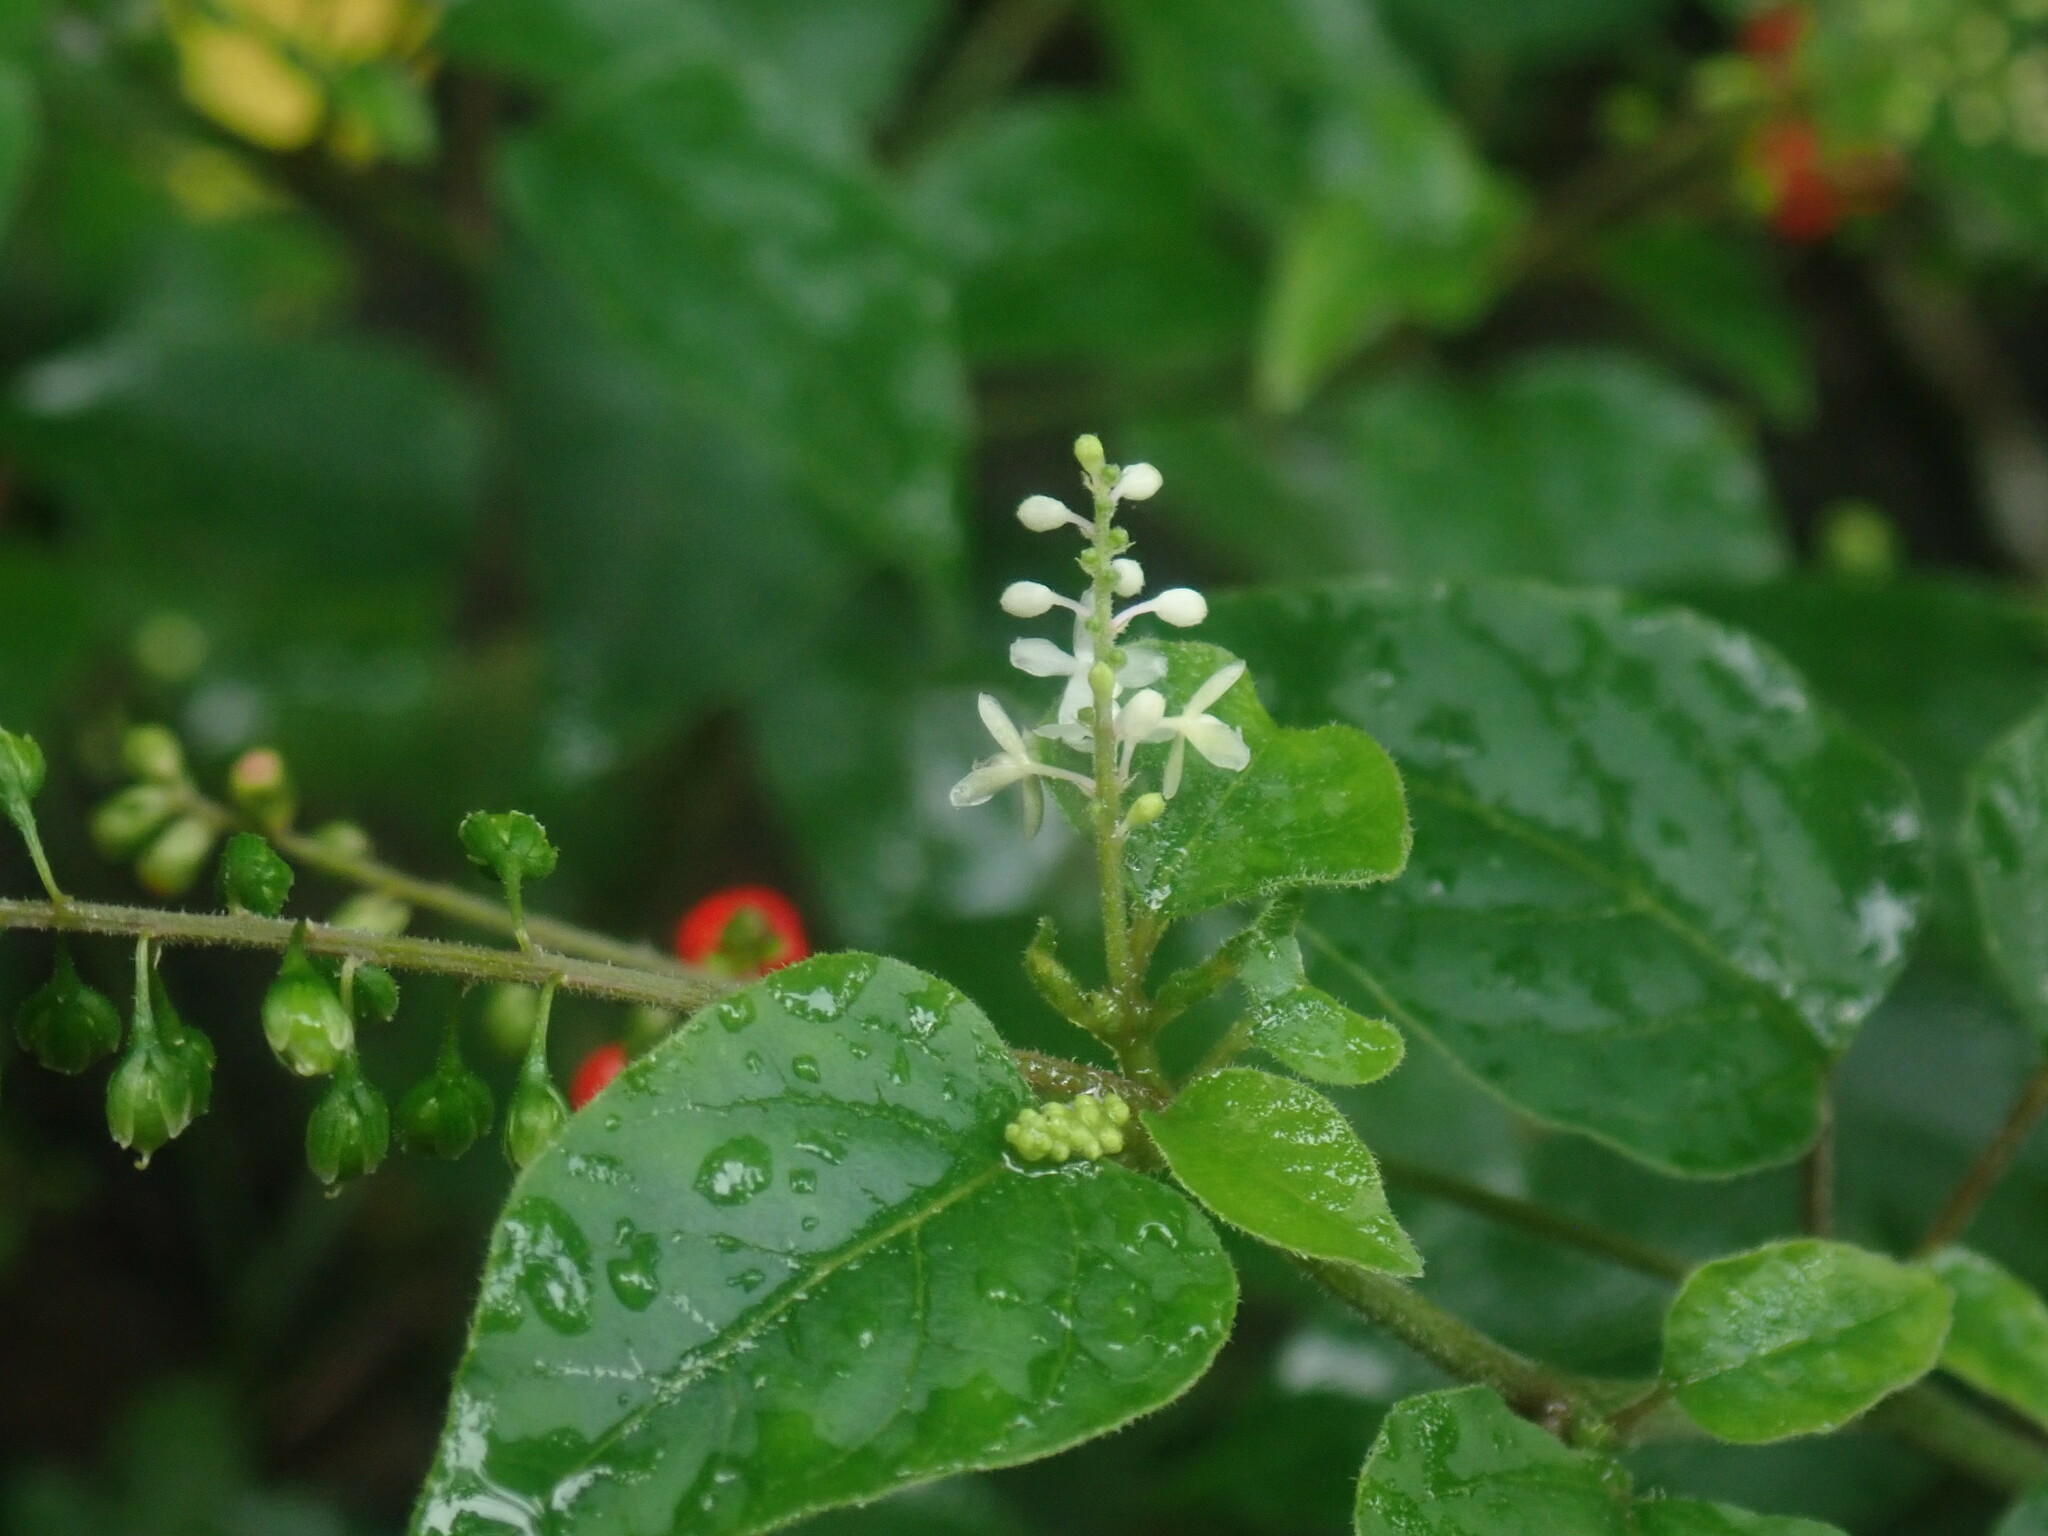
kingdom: Plantae
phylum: Tracheophyta
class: Magnoliopsida
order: Caryophyllales
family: Phytolaccaceae
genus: Rivina
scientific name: Rivina humilis
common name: Rougeplant
